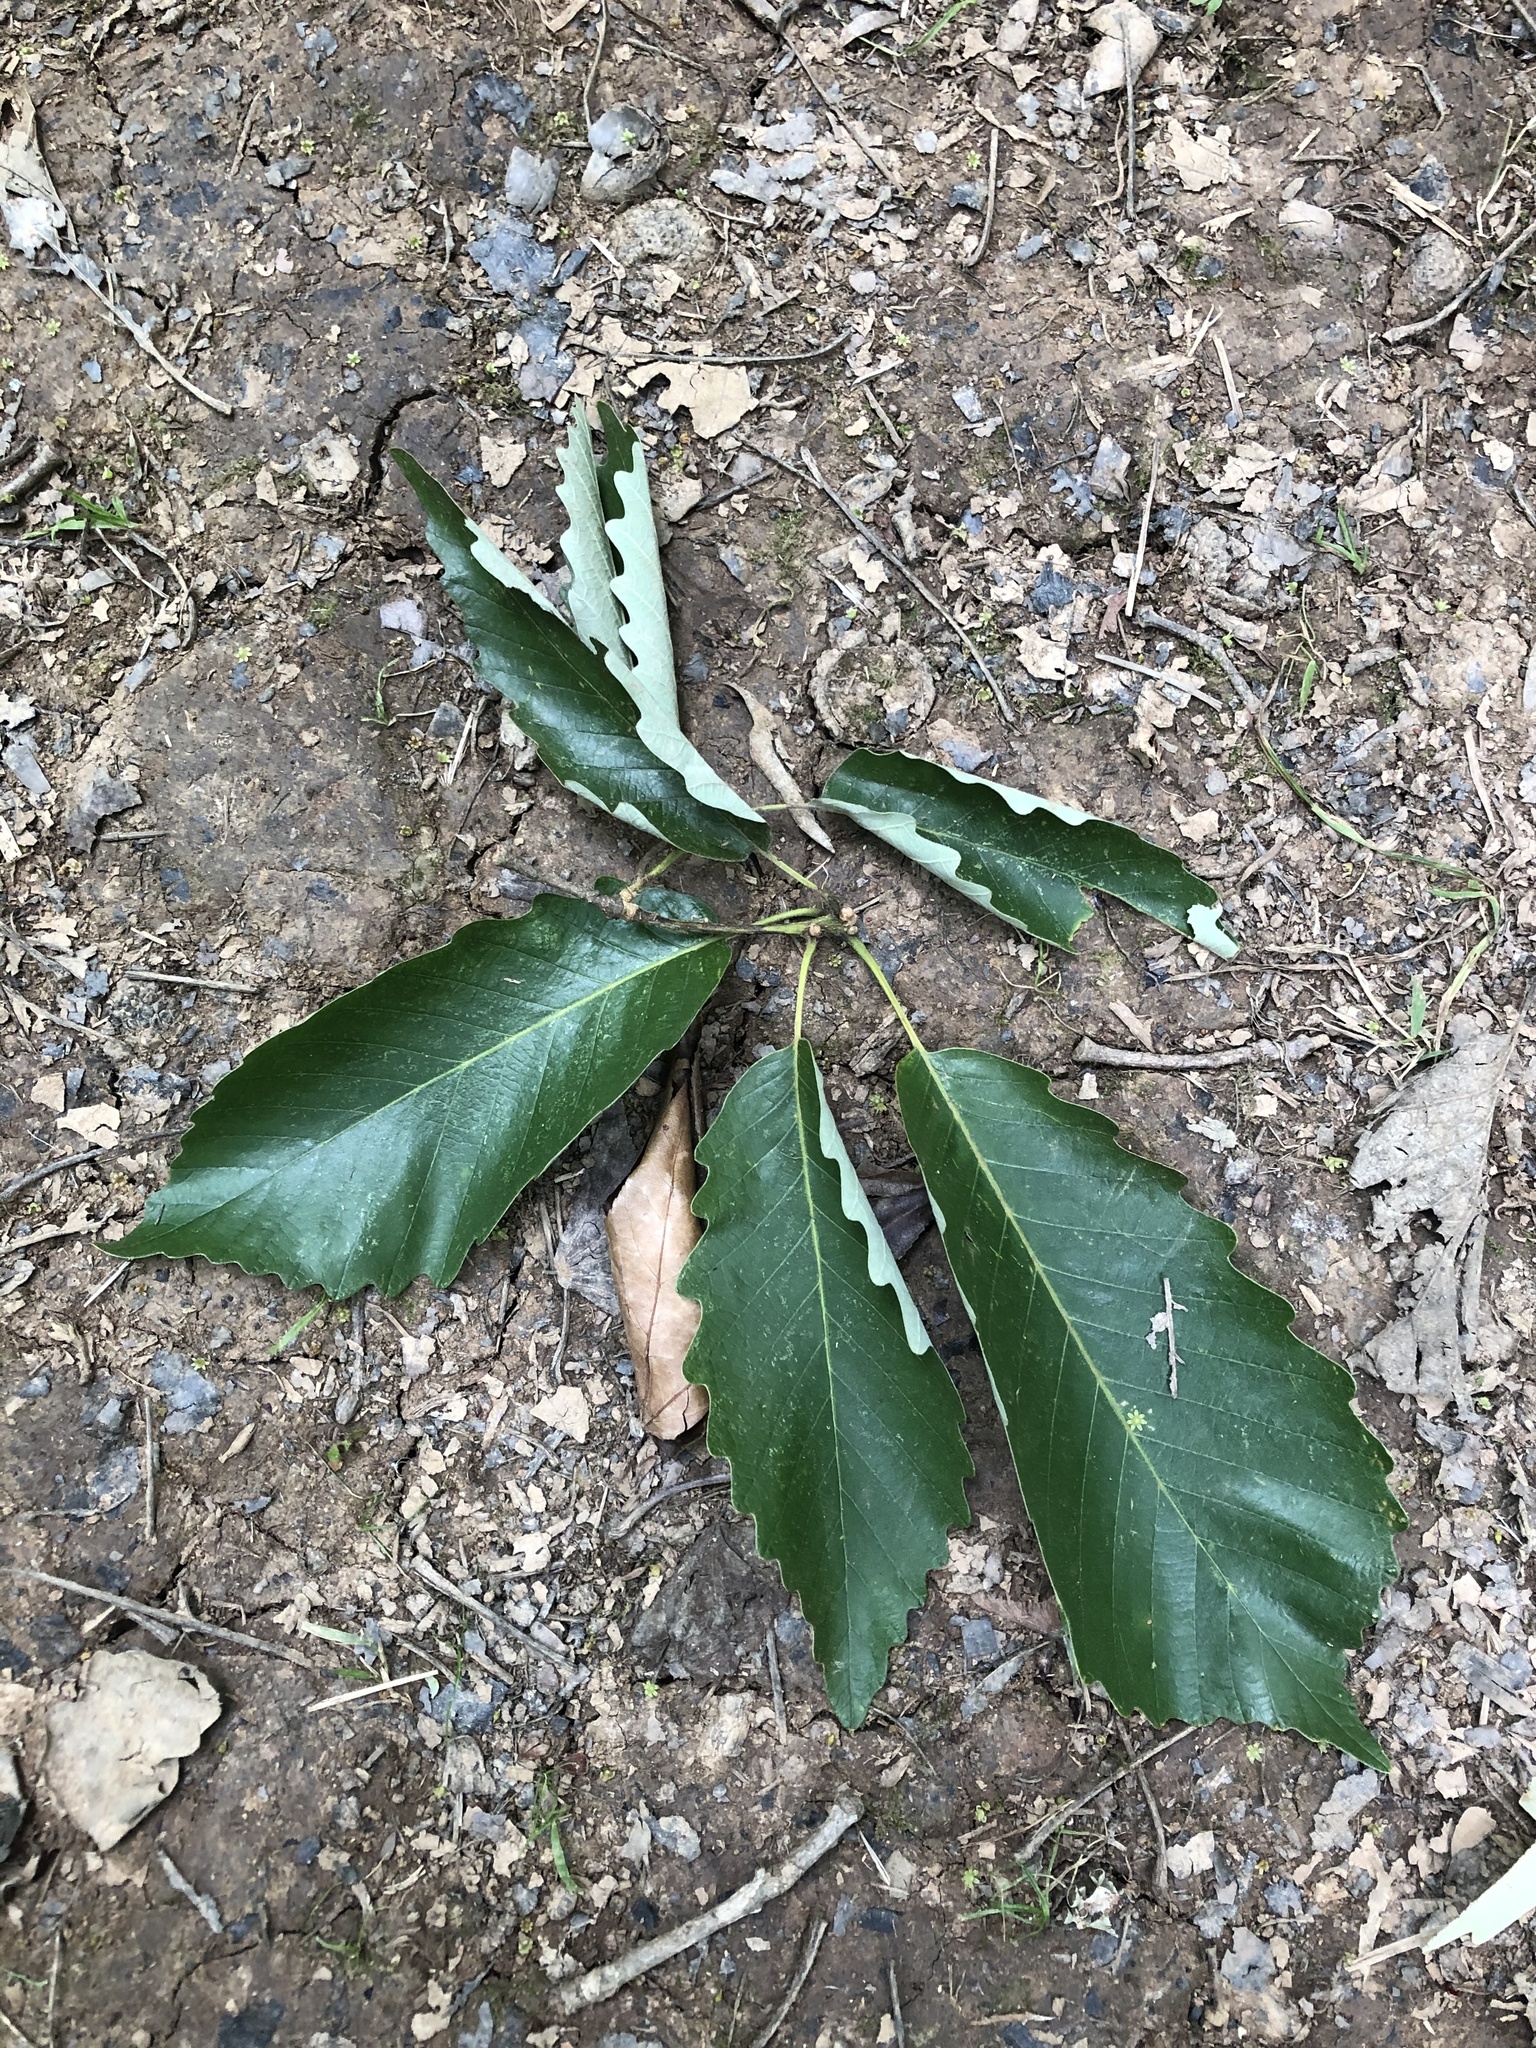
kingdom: Plantae
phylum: Tracheophyta
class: Magnoliopsida
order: Fagales
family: Fagaceae
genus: Quercus
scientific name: Quercus michauxii
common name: Swamp chestnut oak
